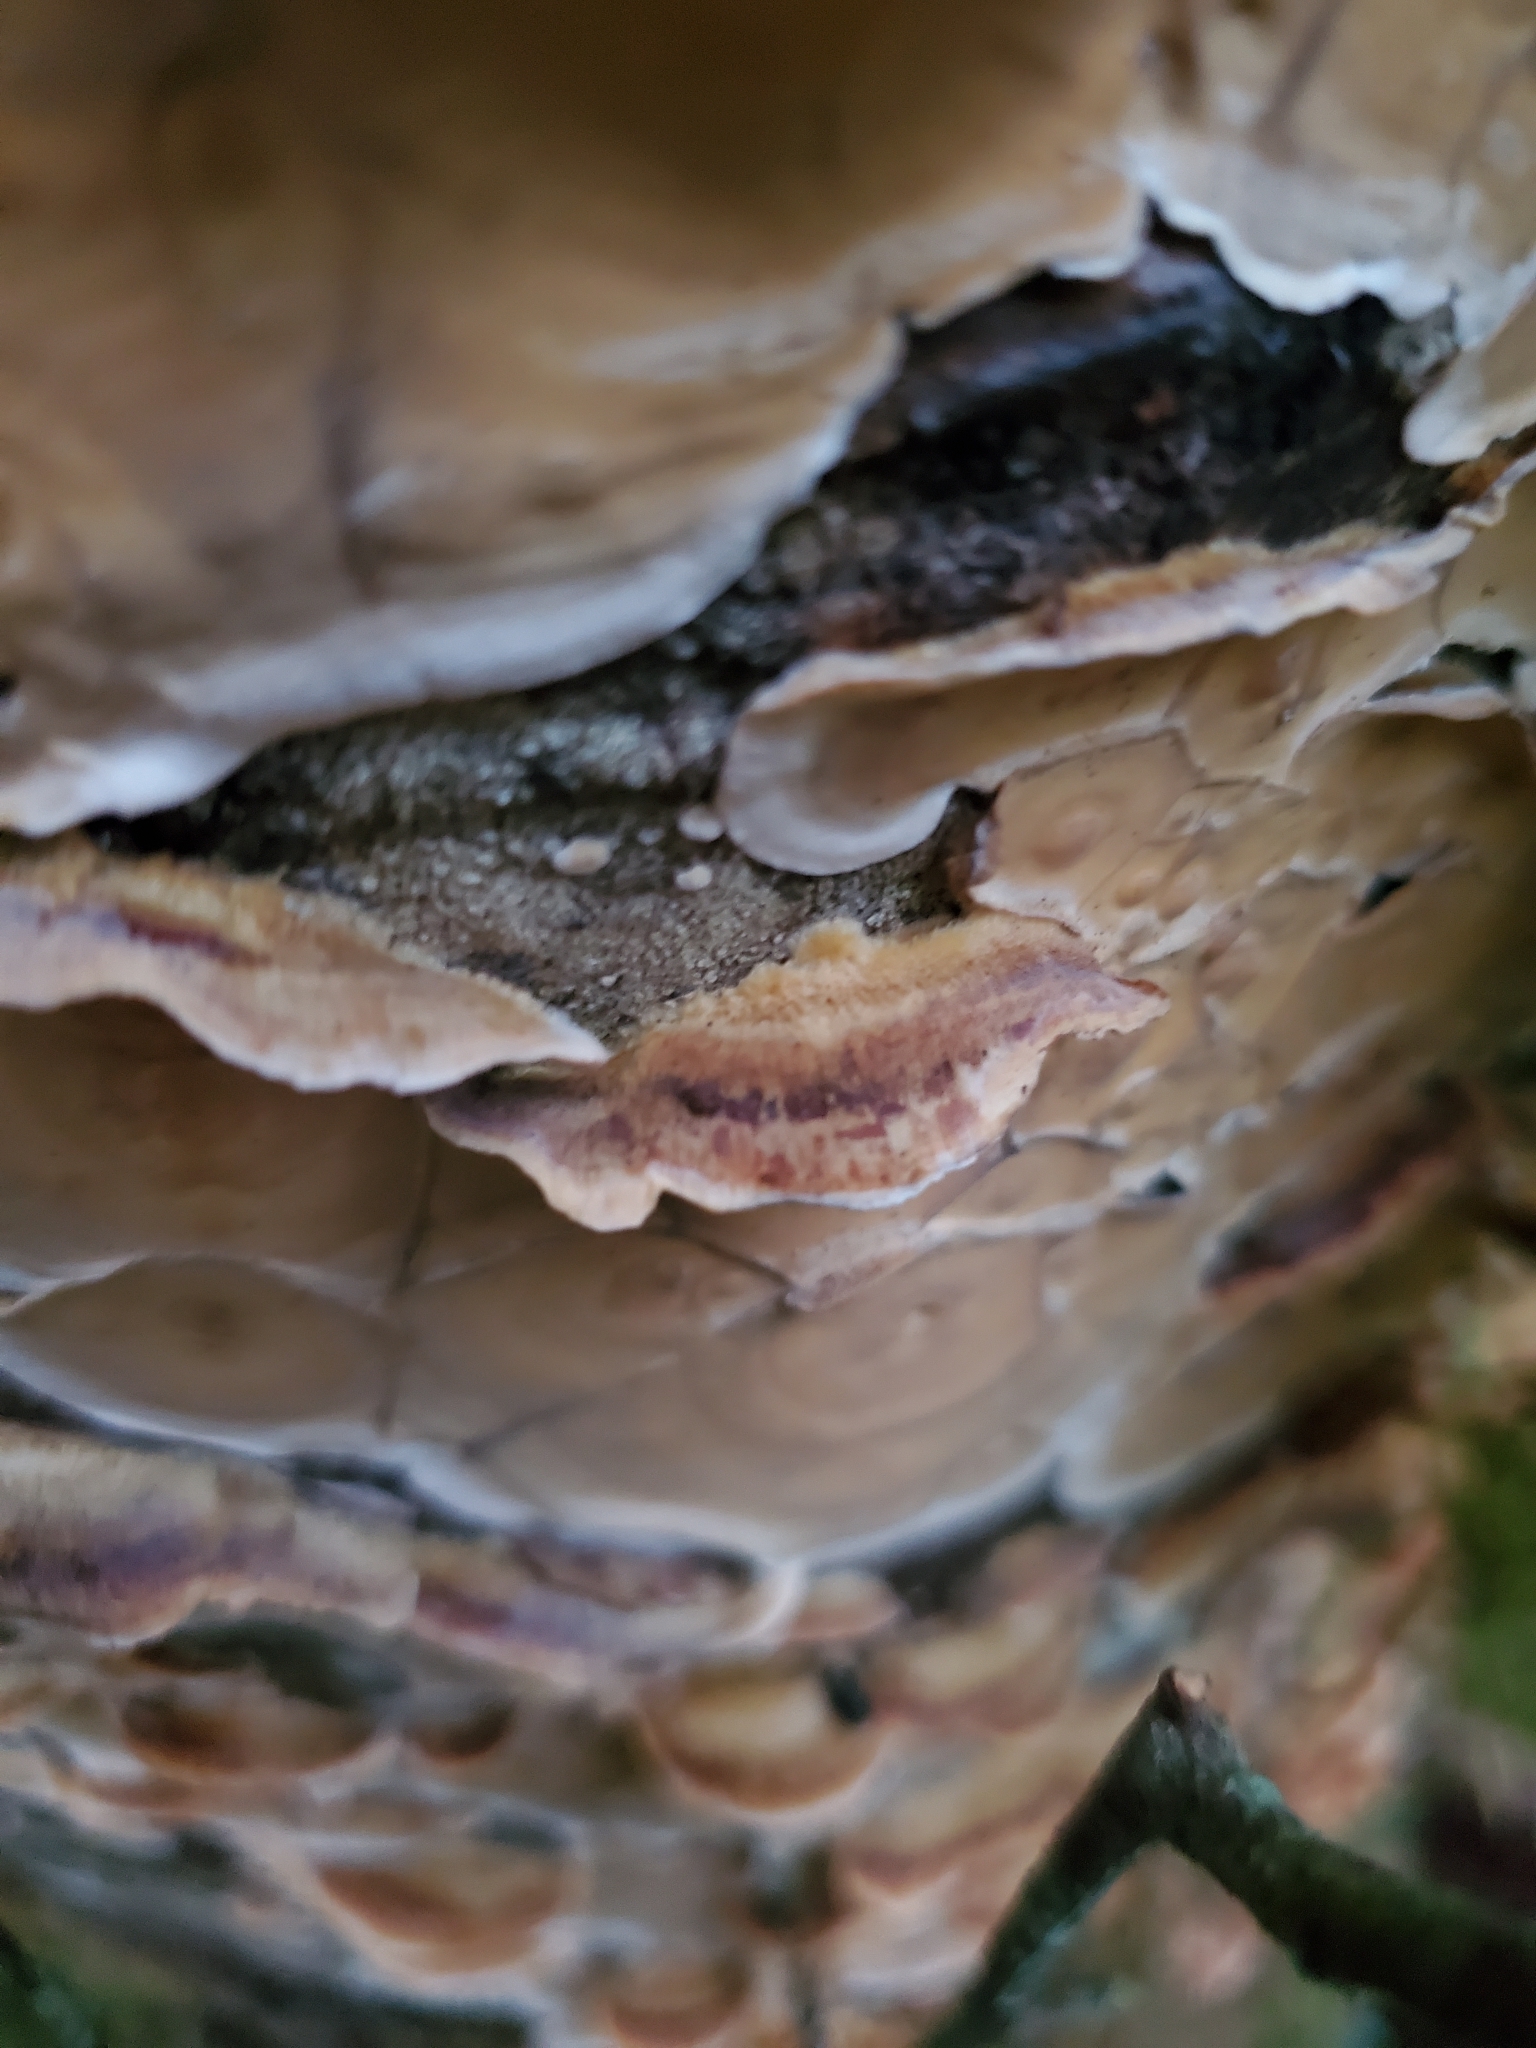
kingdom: Fungi
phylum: Basidiomycota
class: Agaricomycetes
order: Polyporales
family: Irpicaceae
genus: Byssomerulius
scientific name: Byssomerulius corium
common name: Netted crust
